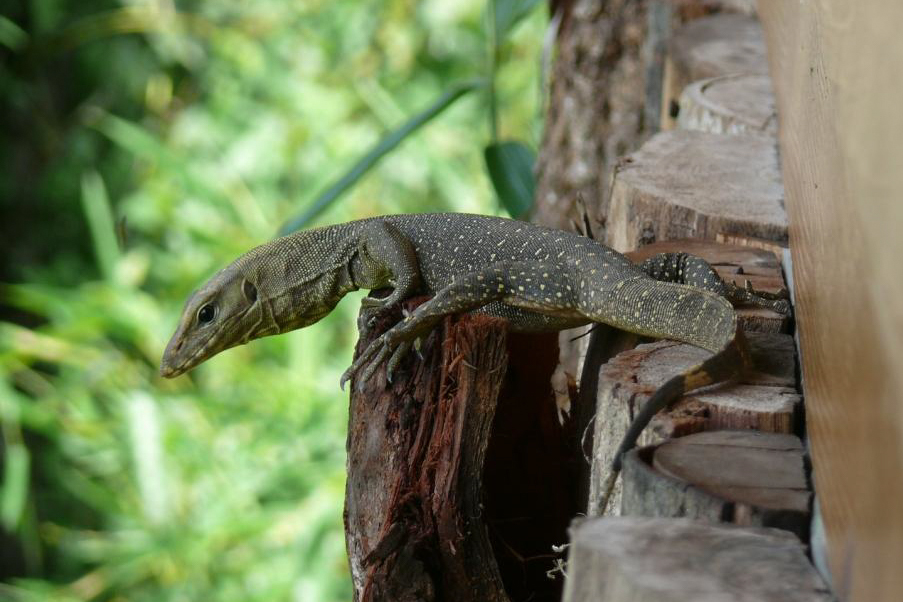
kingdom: Animalia
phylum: Chordata
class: Squamata
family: Varanidae
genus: Varanus
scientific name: Varanus nebulosus
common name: Clouded monitor
